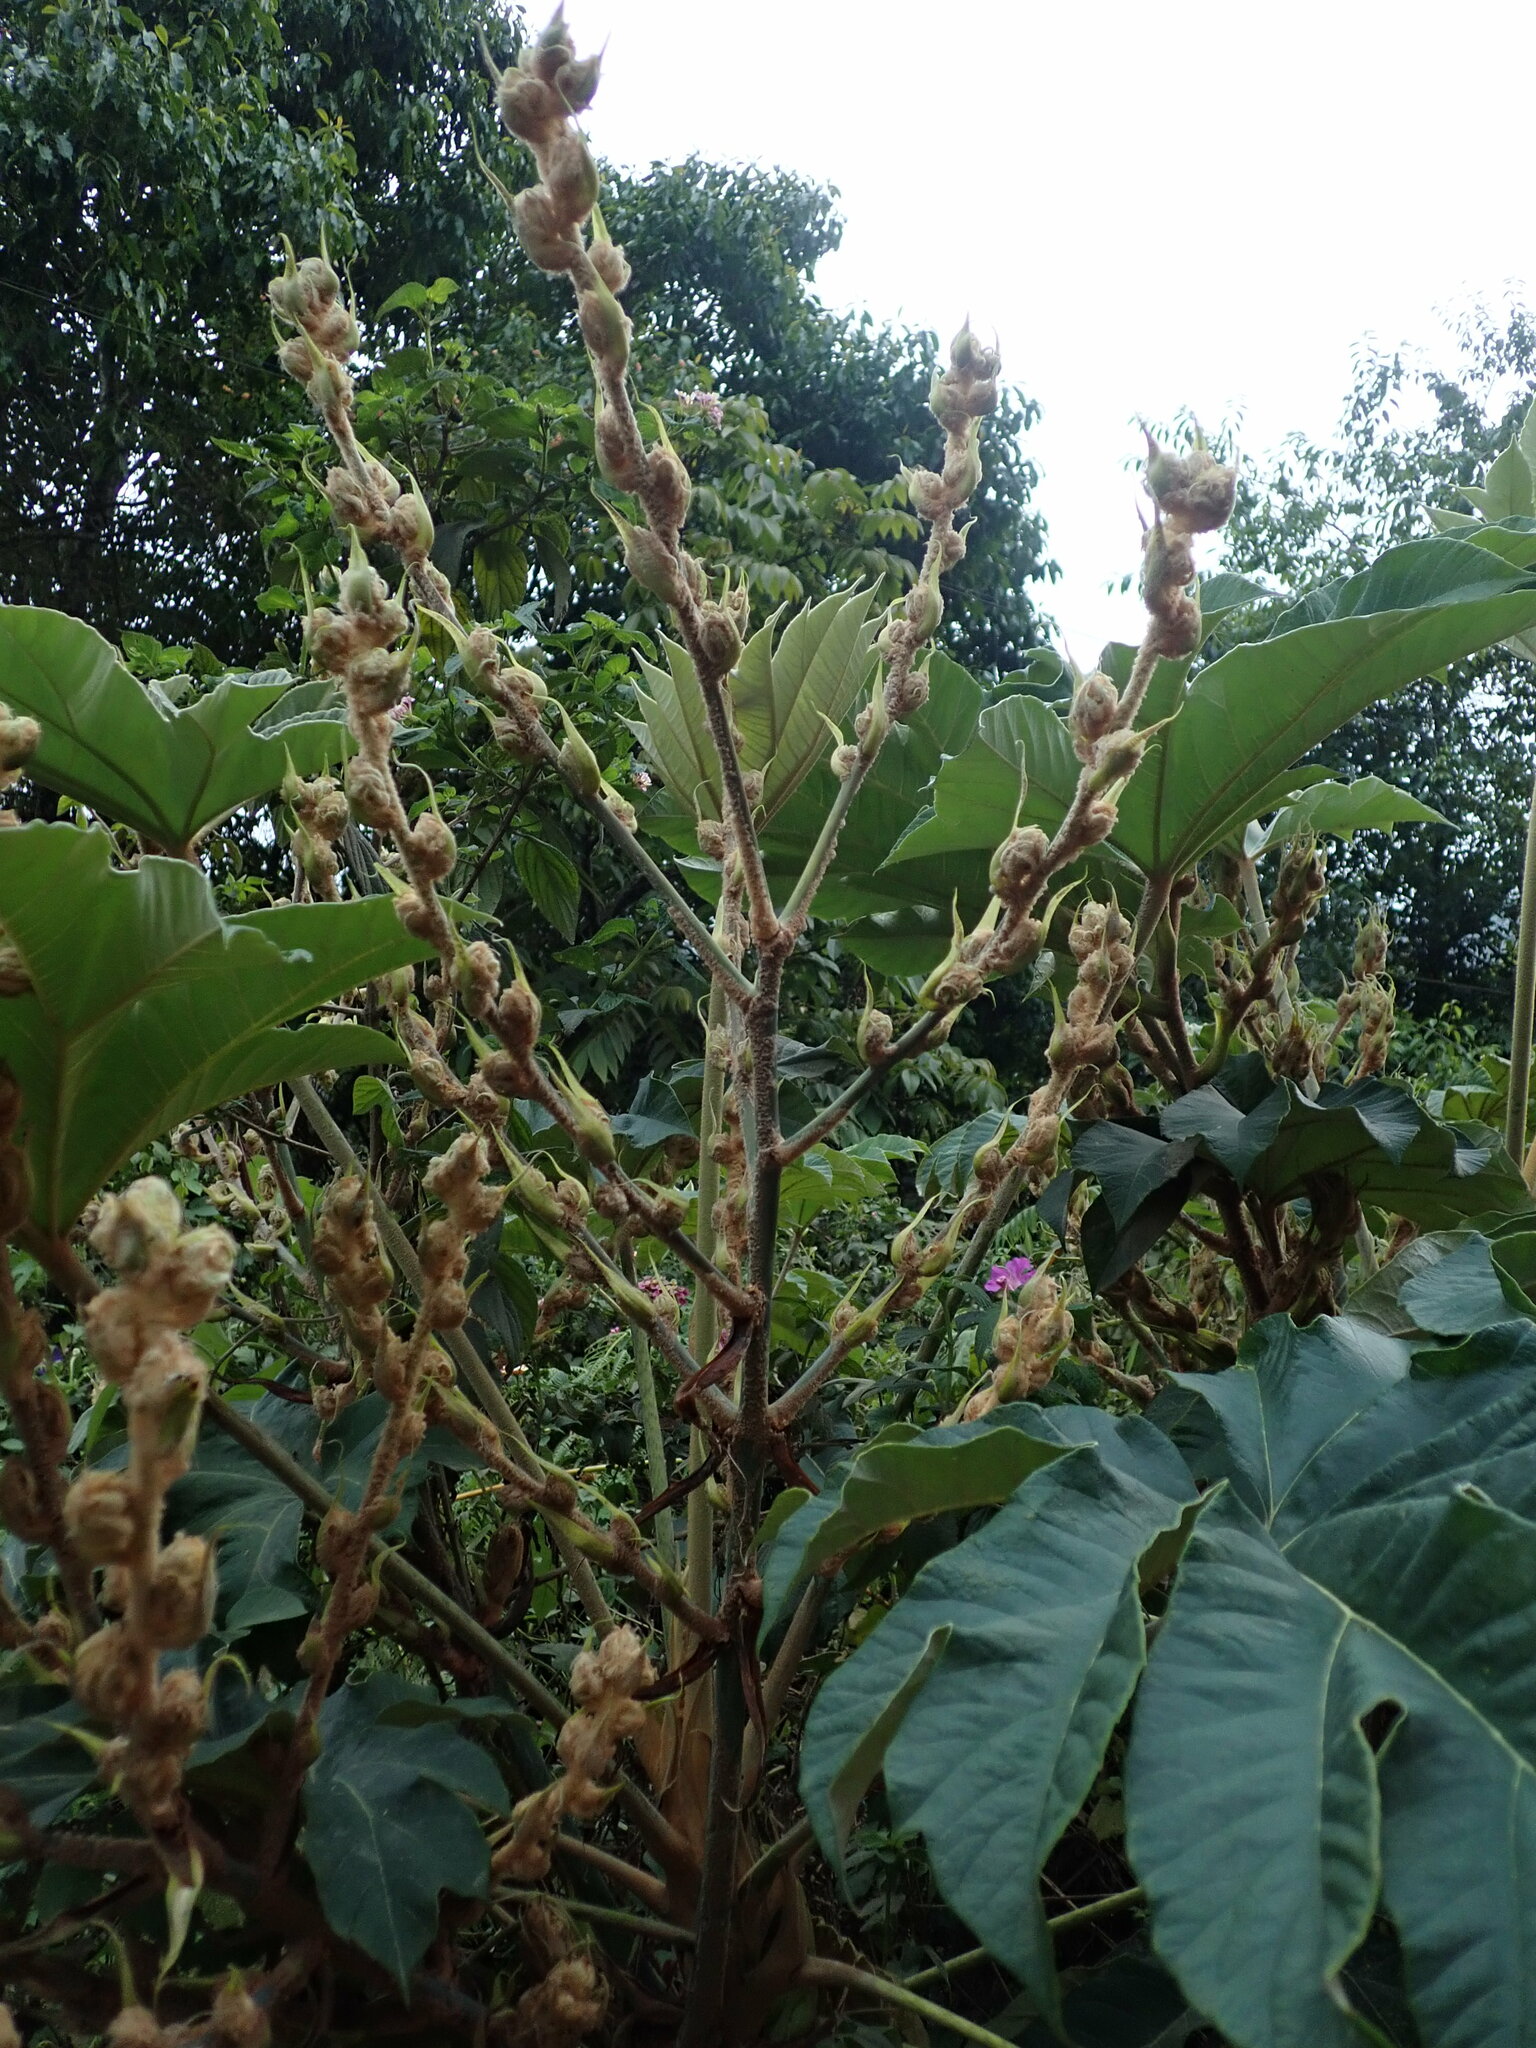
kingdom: Plantae
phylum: Tracheophyta
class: Magnoliopsida
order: Apiales
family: Araliaceae
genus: Tetrapanax
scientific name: Tetrapanax papyrifer
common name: Rice-paper plant
